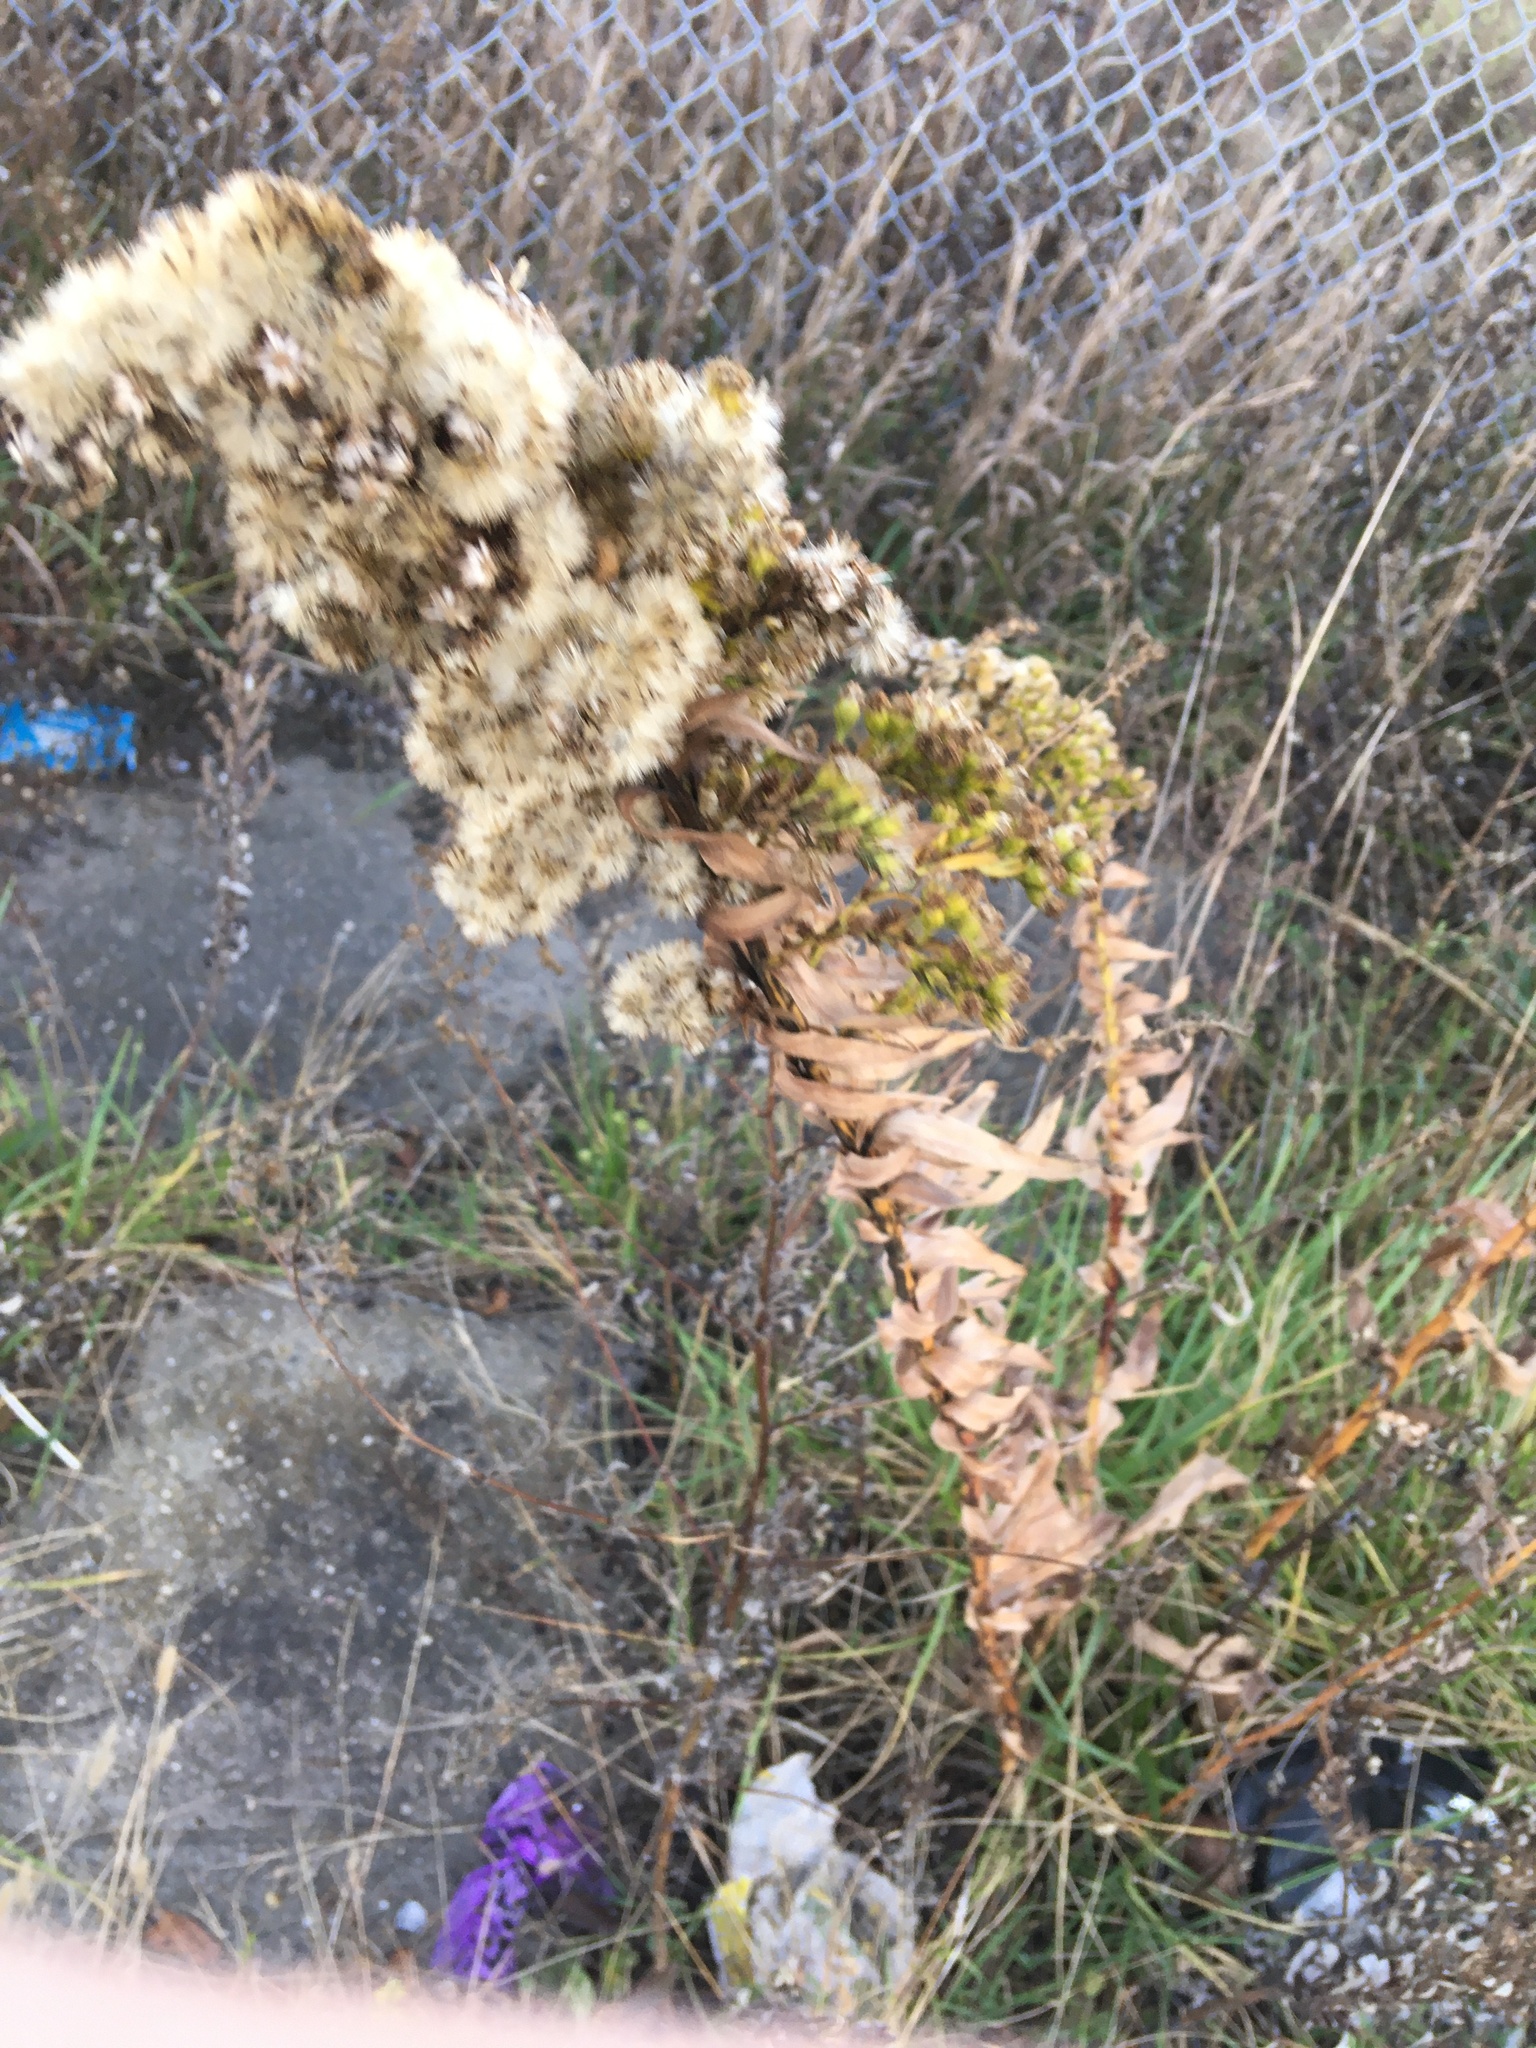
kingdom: Plantae
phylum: Tracheophyta
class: Magnoliopsida
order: Asterales
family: Asteraceae
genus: Solidago
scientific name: Solidago sempervirens
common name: Salt-marsh goldenrod
